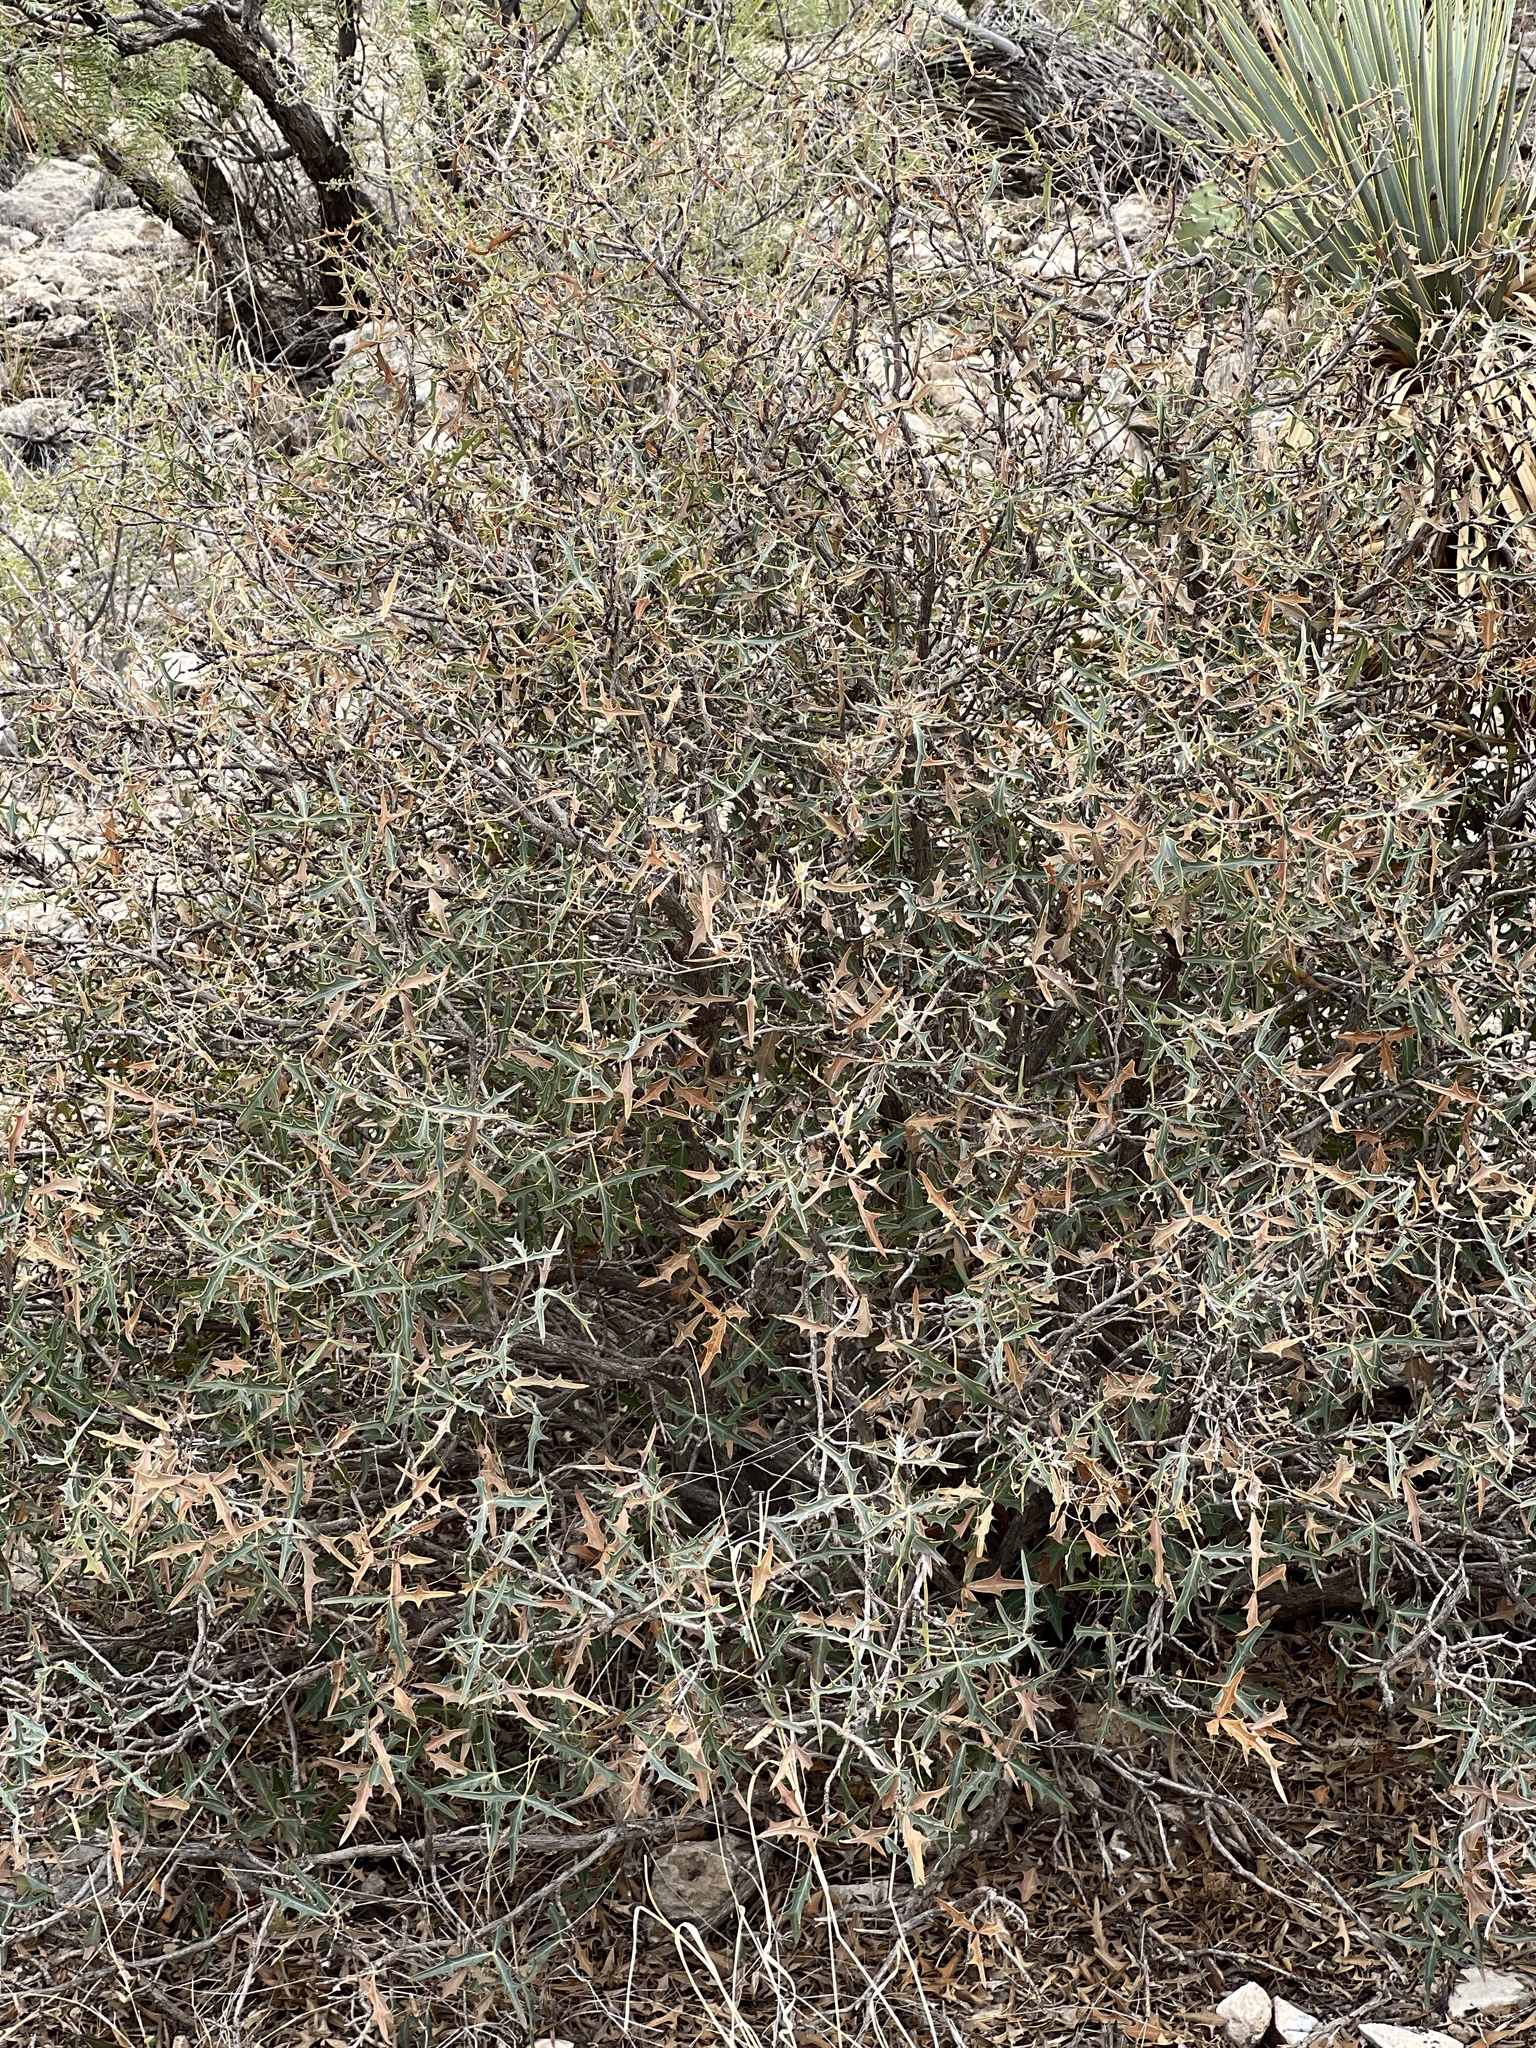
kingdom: Plantae
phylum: Tracheophyta
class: Magnoliopsida
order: Ranunculales
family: Berberidaceae
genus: Alloberberis
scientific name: Alloberberis trifoliolata
